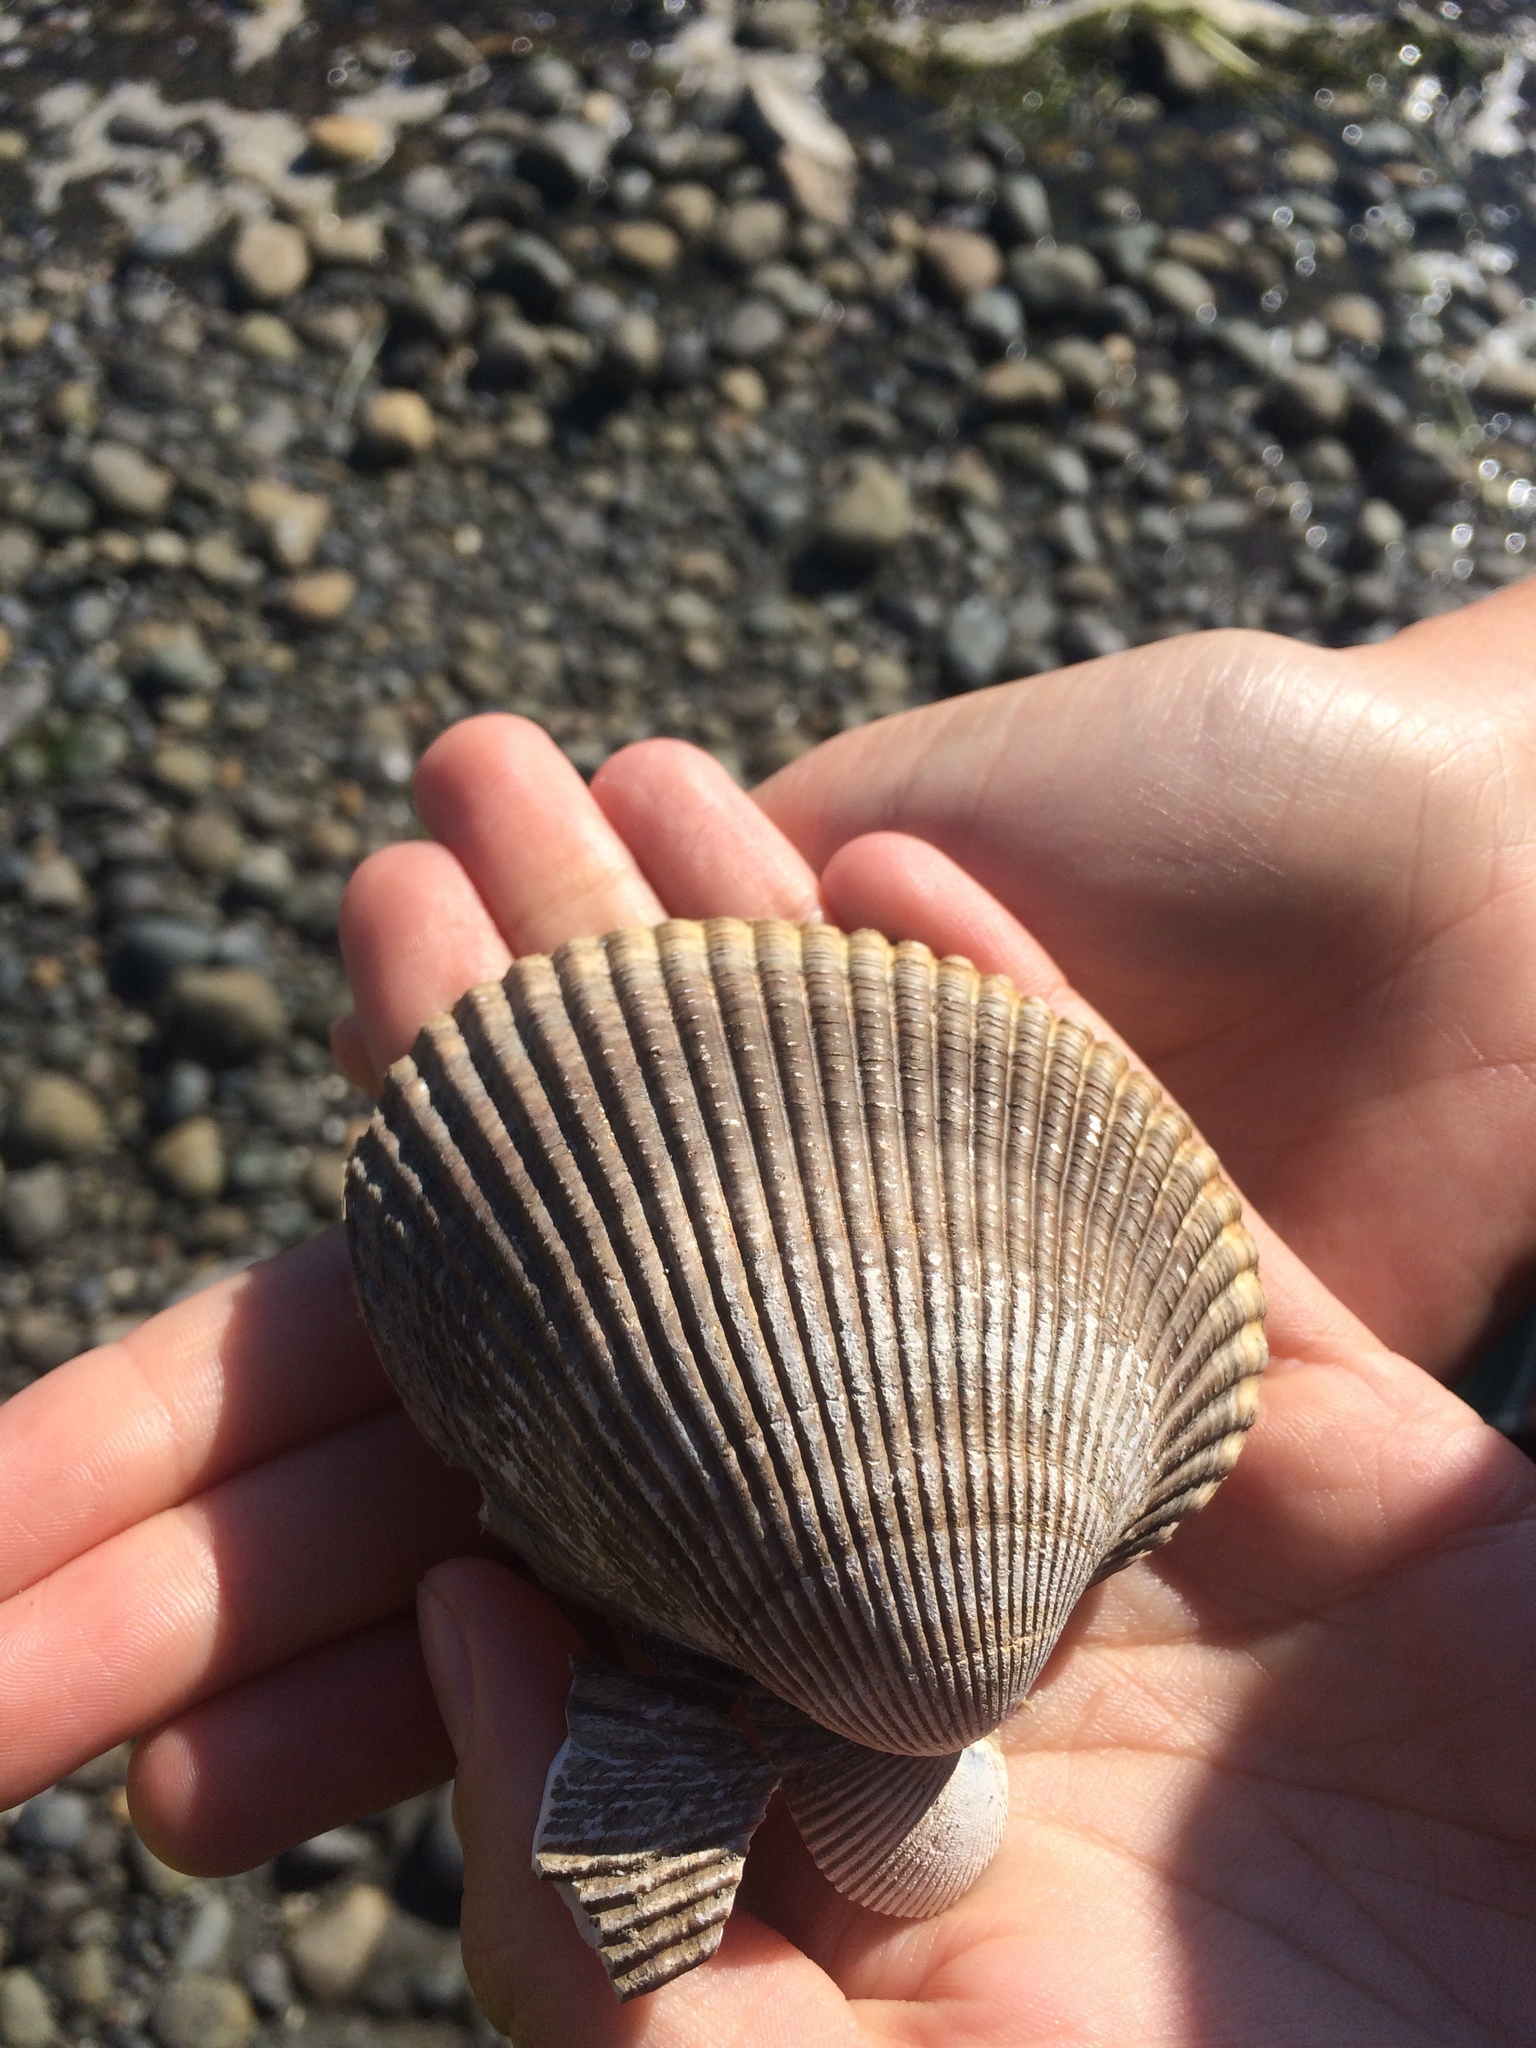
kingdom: Animalia
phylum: Mollusca
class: Bivalvia
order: Cardiida
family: Cardiidae
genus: Clinocardium
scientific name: Clinocardium nuttallii
